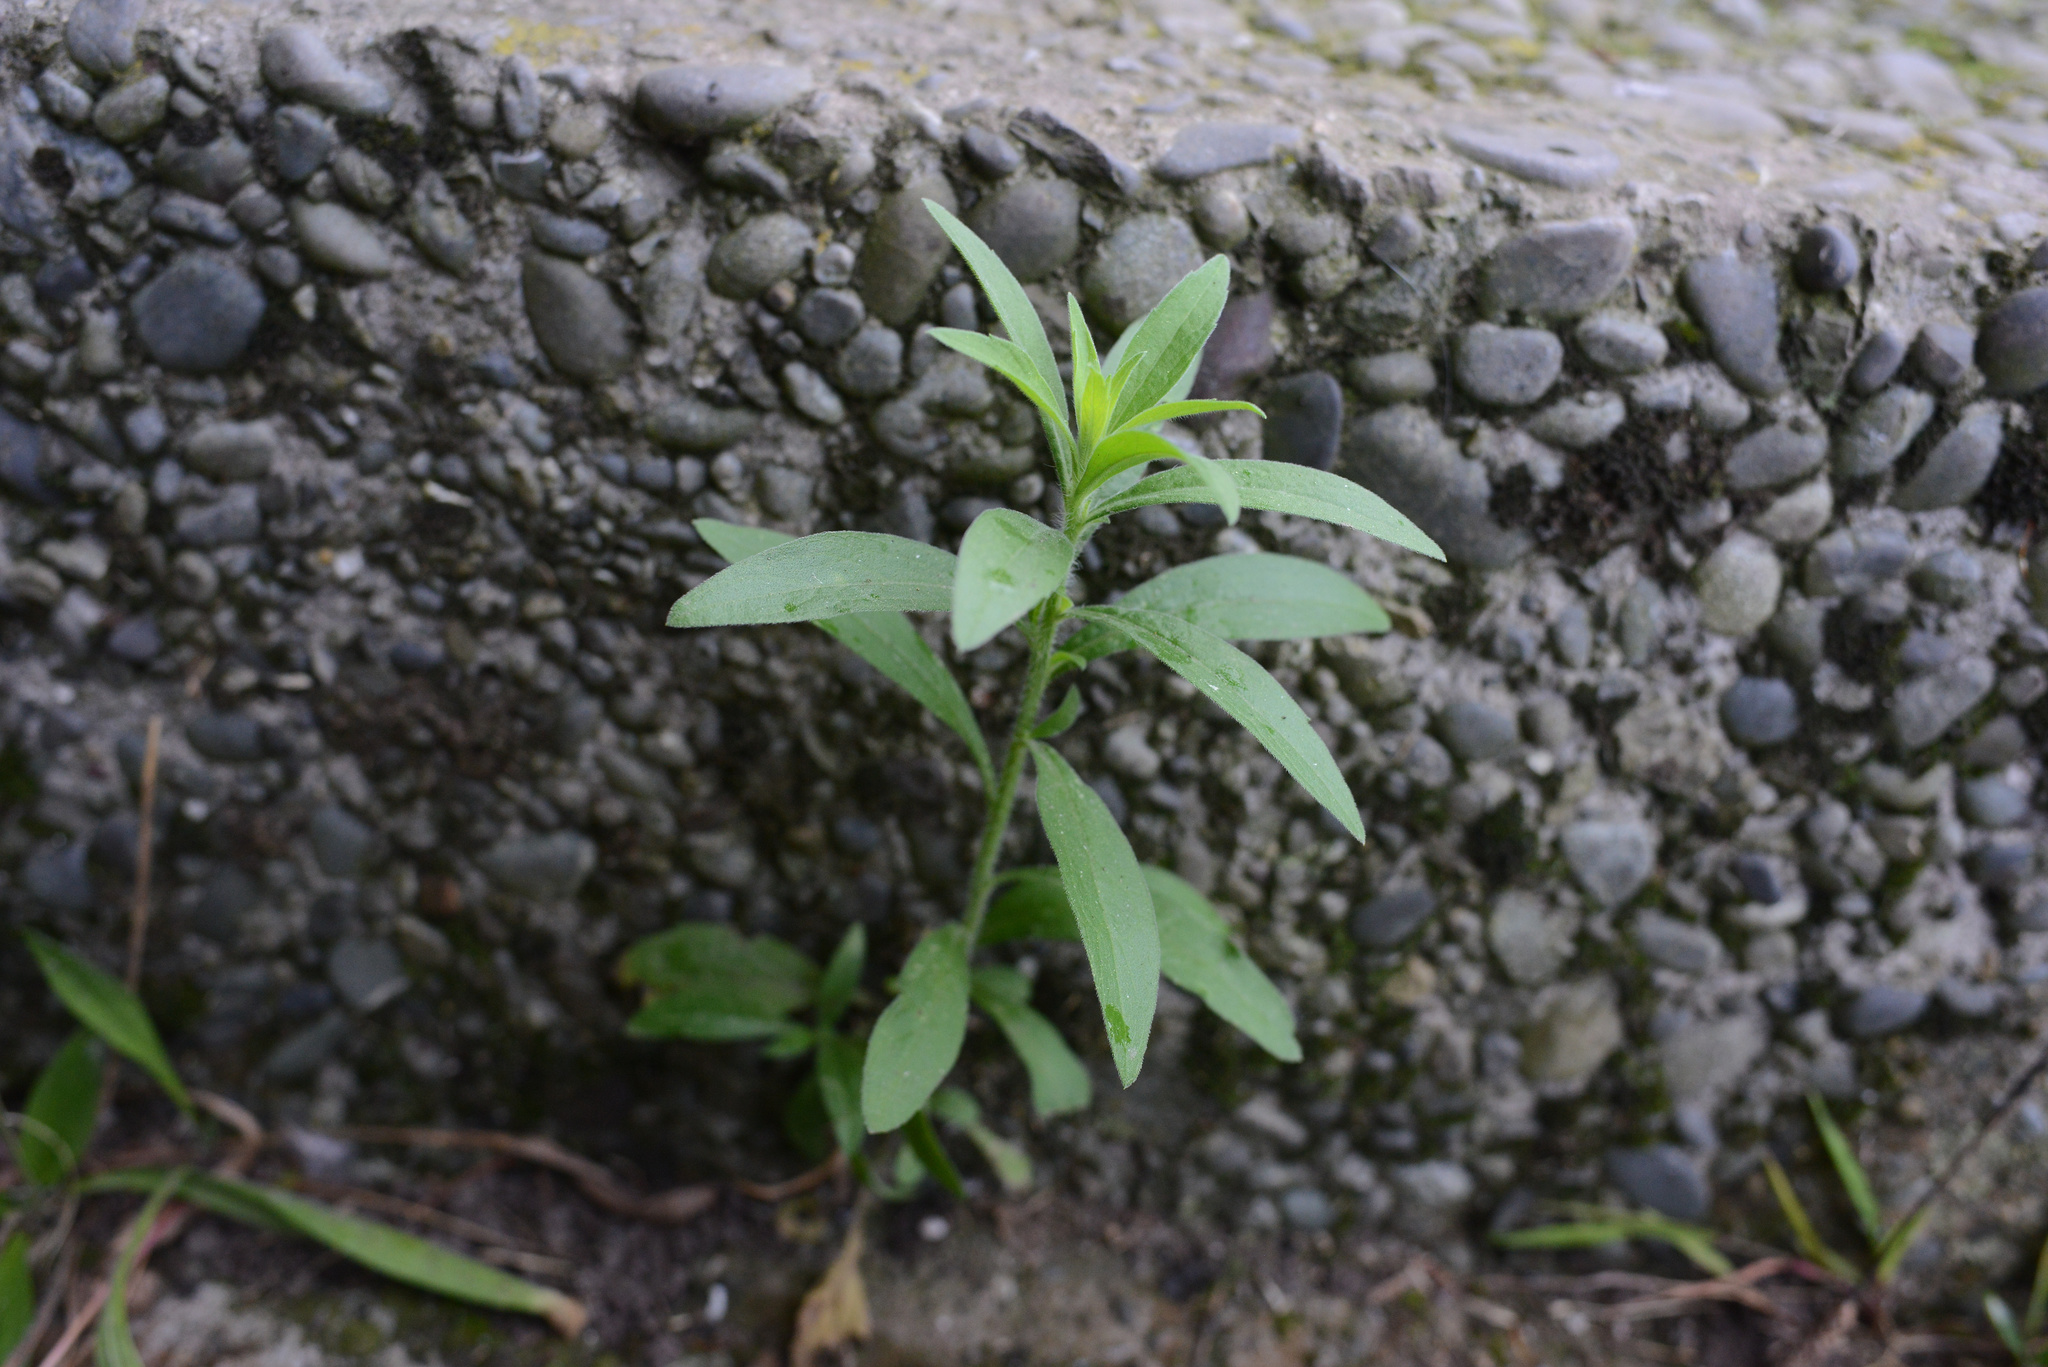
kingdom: Plantae
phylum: Tracheophyta
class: Magnoliopsida
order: Asterales
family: Asteraceae
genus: Erigeron
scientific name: Erigeron sumatrensis
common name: Daisy
